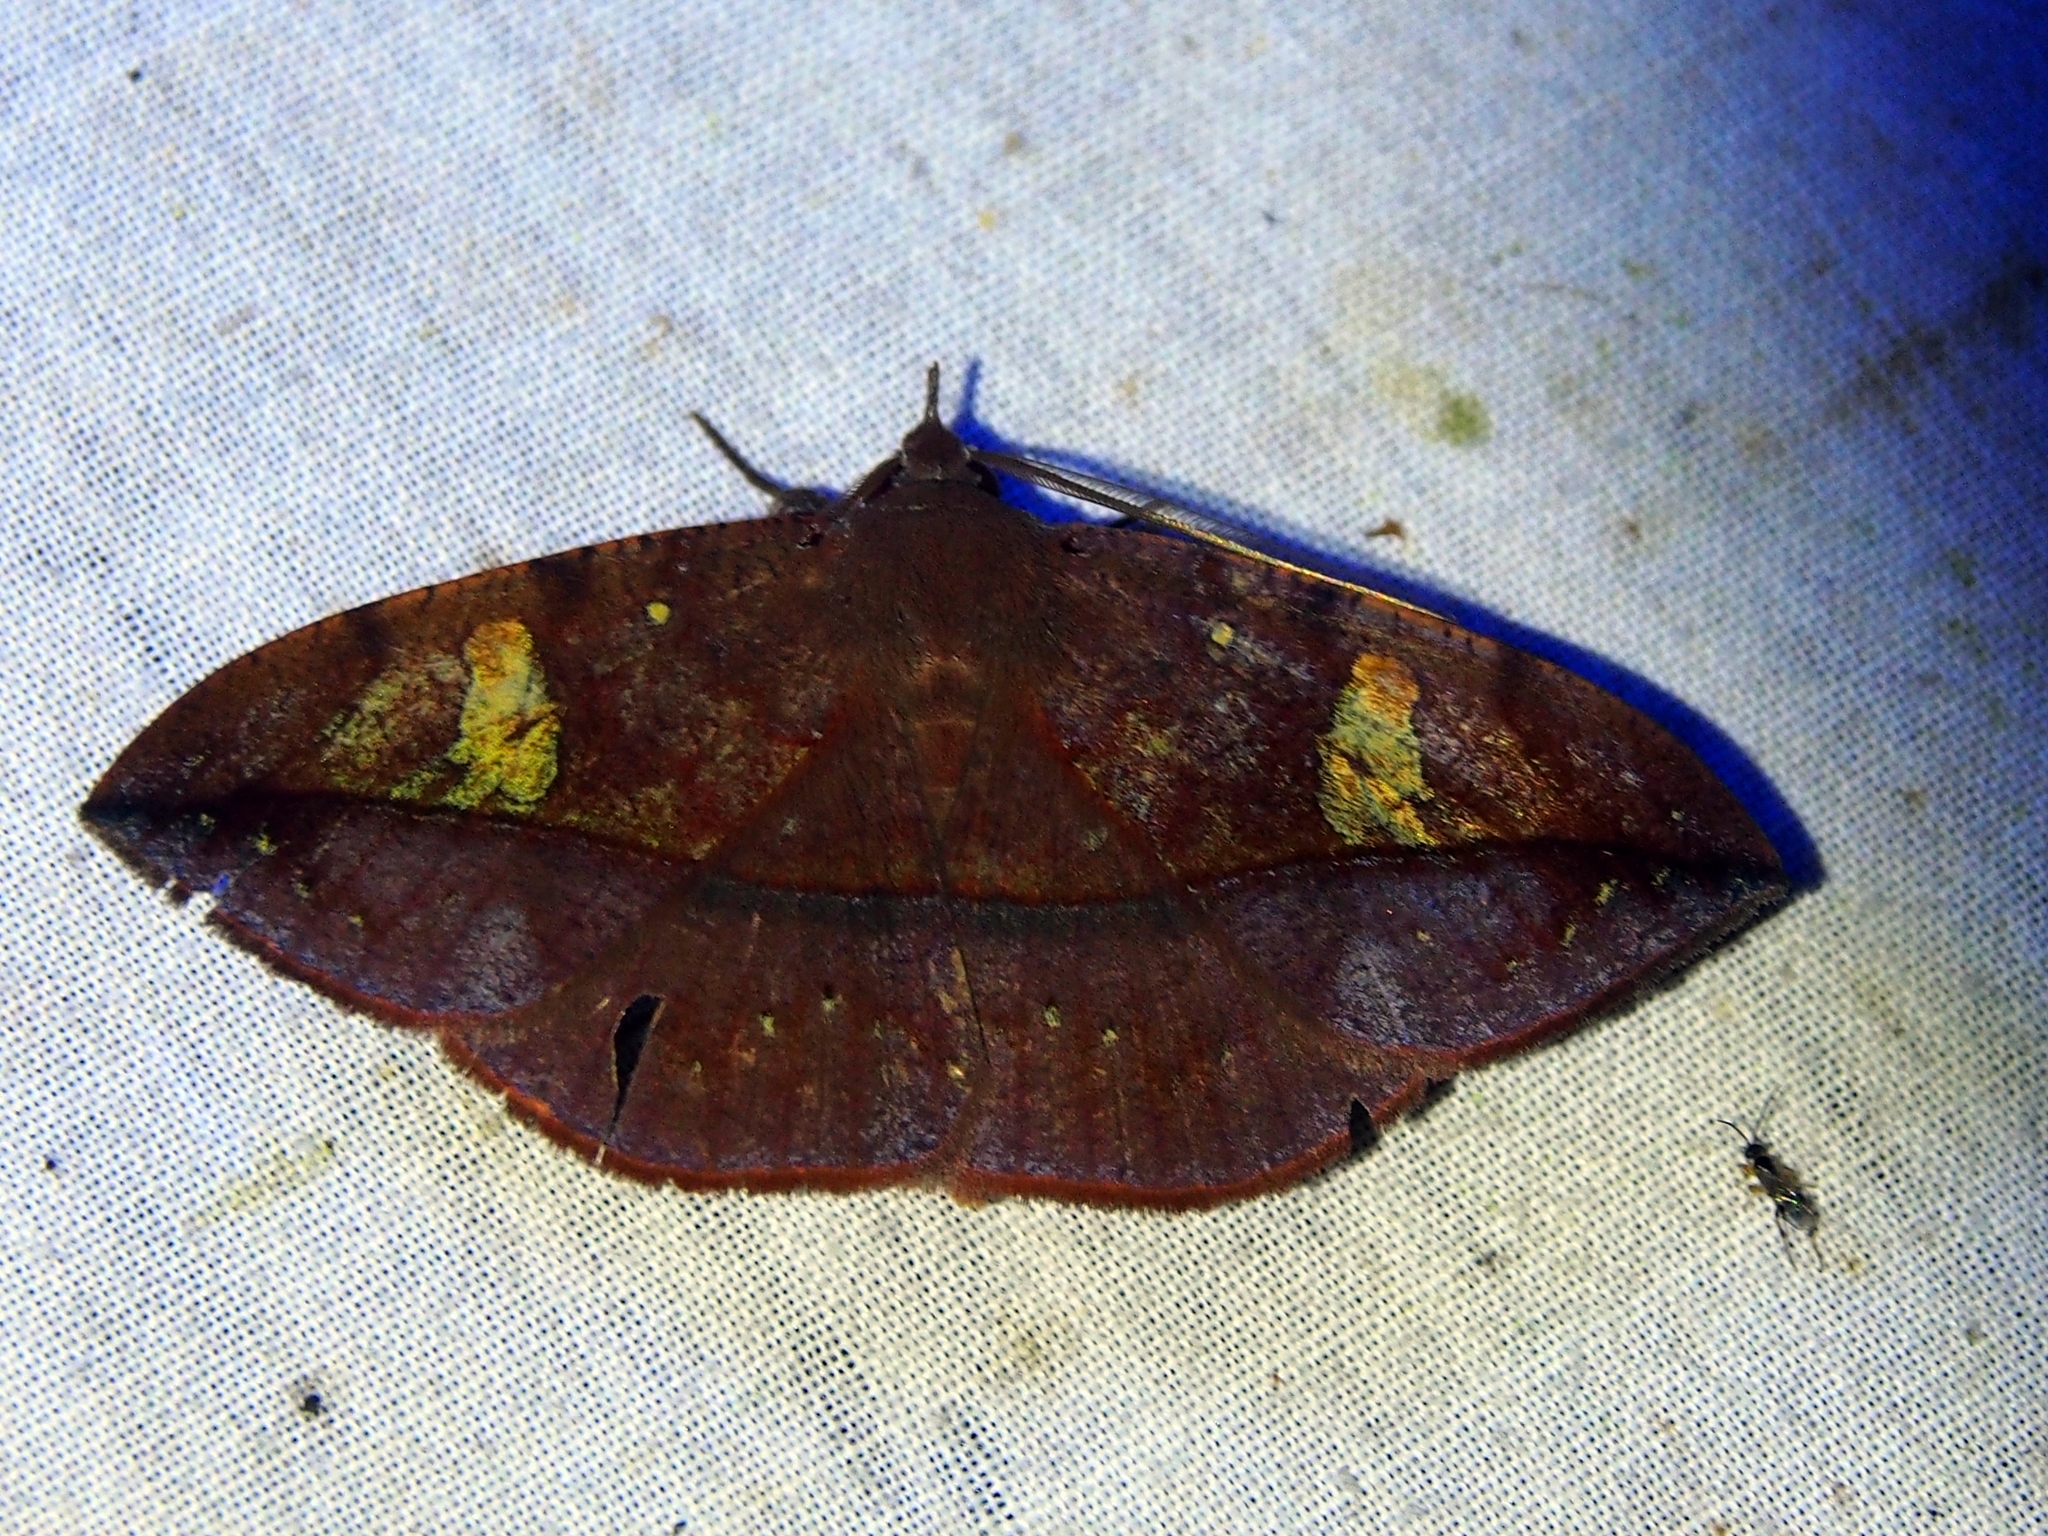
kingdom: Animalia
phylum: Arthropoda
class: Insecta
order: Lepidoptera
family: Erebidae
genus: Gorgone
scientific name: Gorgone augusta
